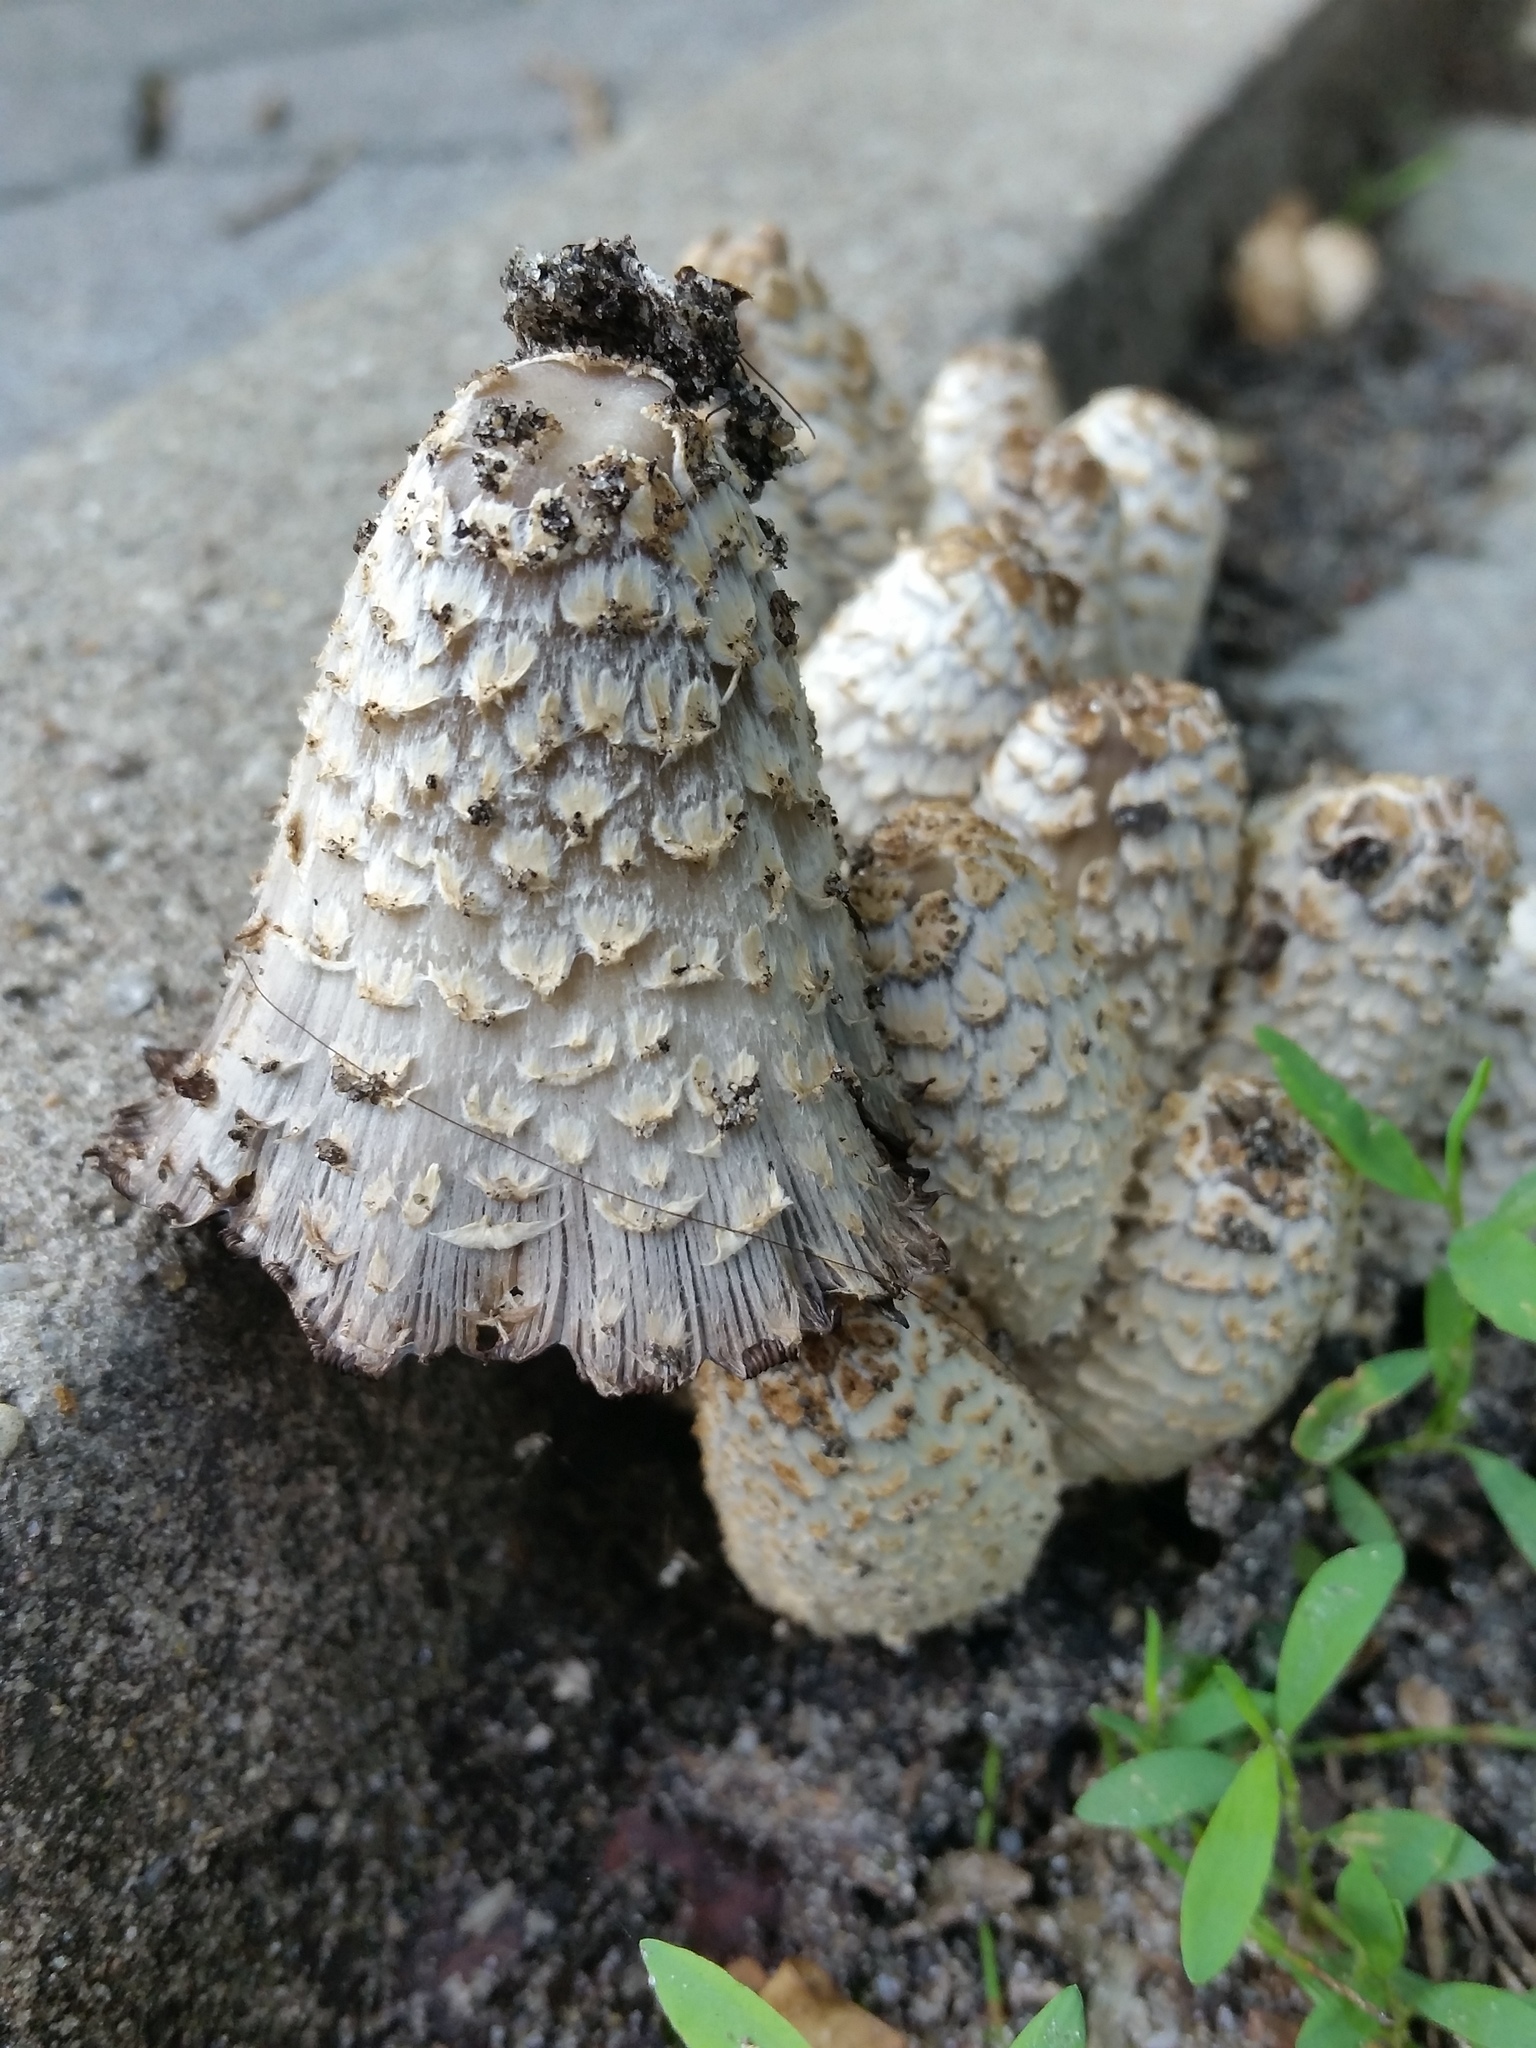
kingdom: Fungi
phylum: Basidiomycota
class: Agaricomycetes
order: Agaricales
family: Psathyrellaceae
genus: Coprinopsis
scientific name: Coprinopsis variegata
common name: Scaly ink cap
